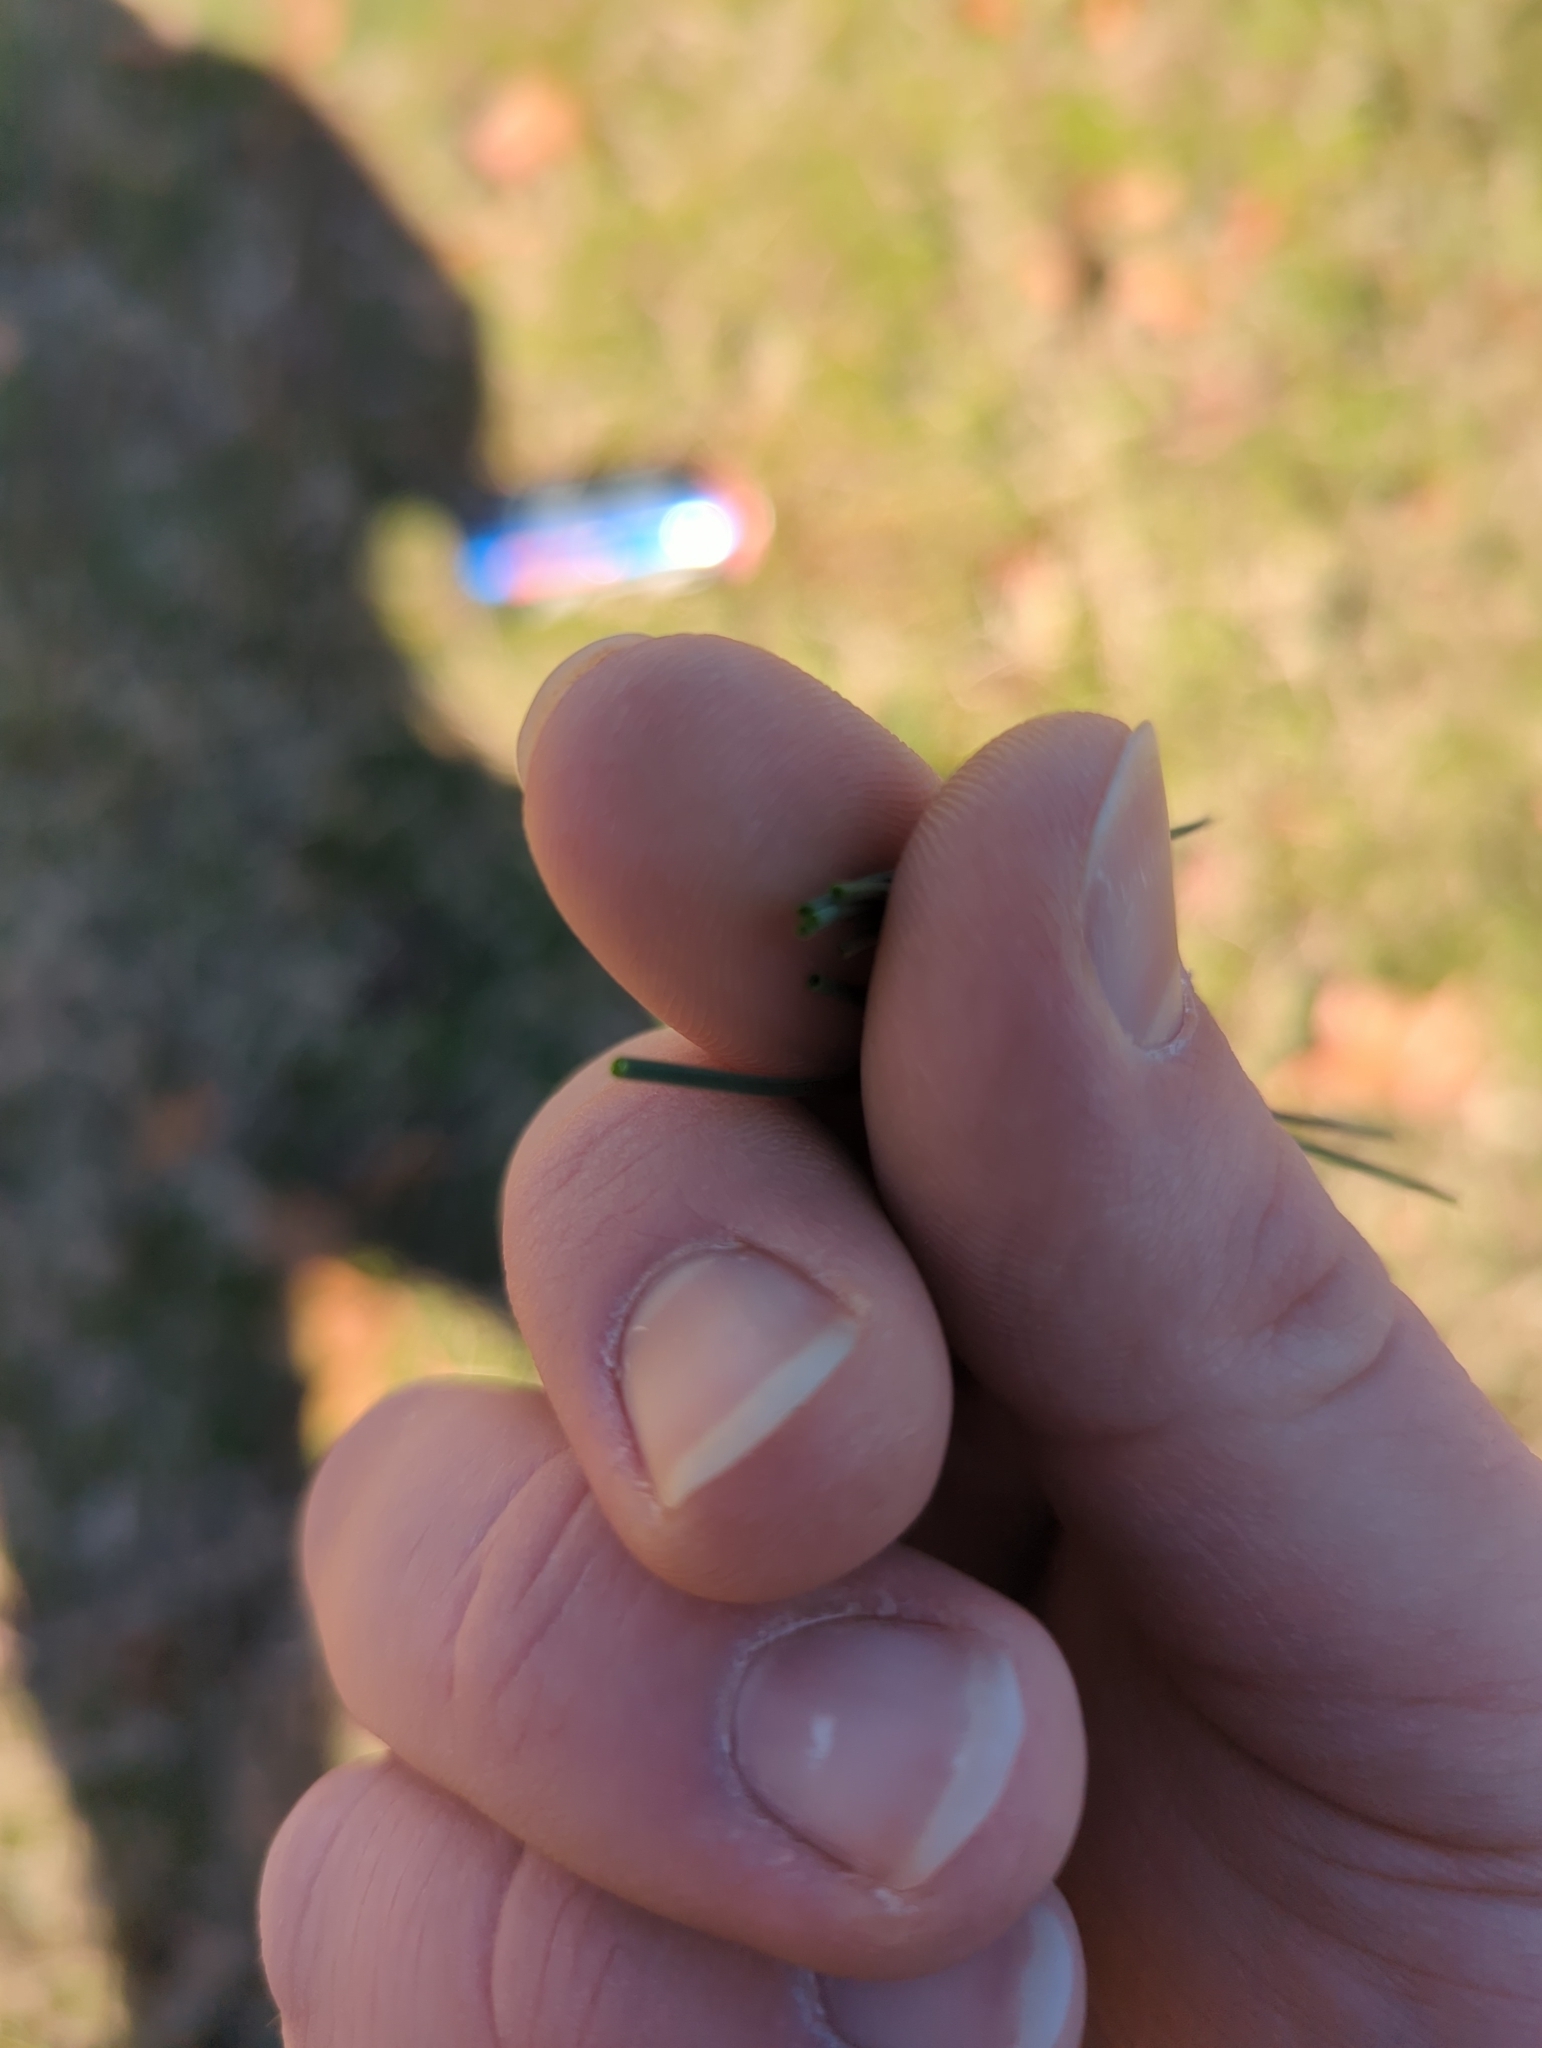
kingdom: Plantae
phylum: Tracheophyta
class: Liliopsida
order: Asparagales
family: Amaryllidaceae
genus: Allium
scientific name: Allium vineale
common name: Crow garlic
